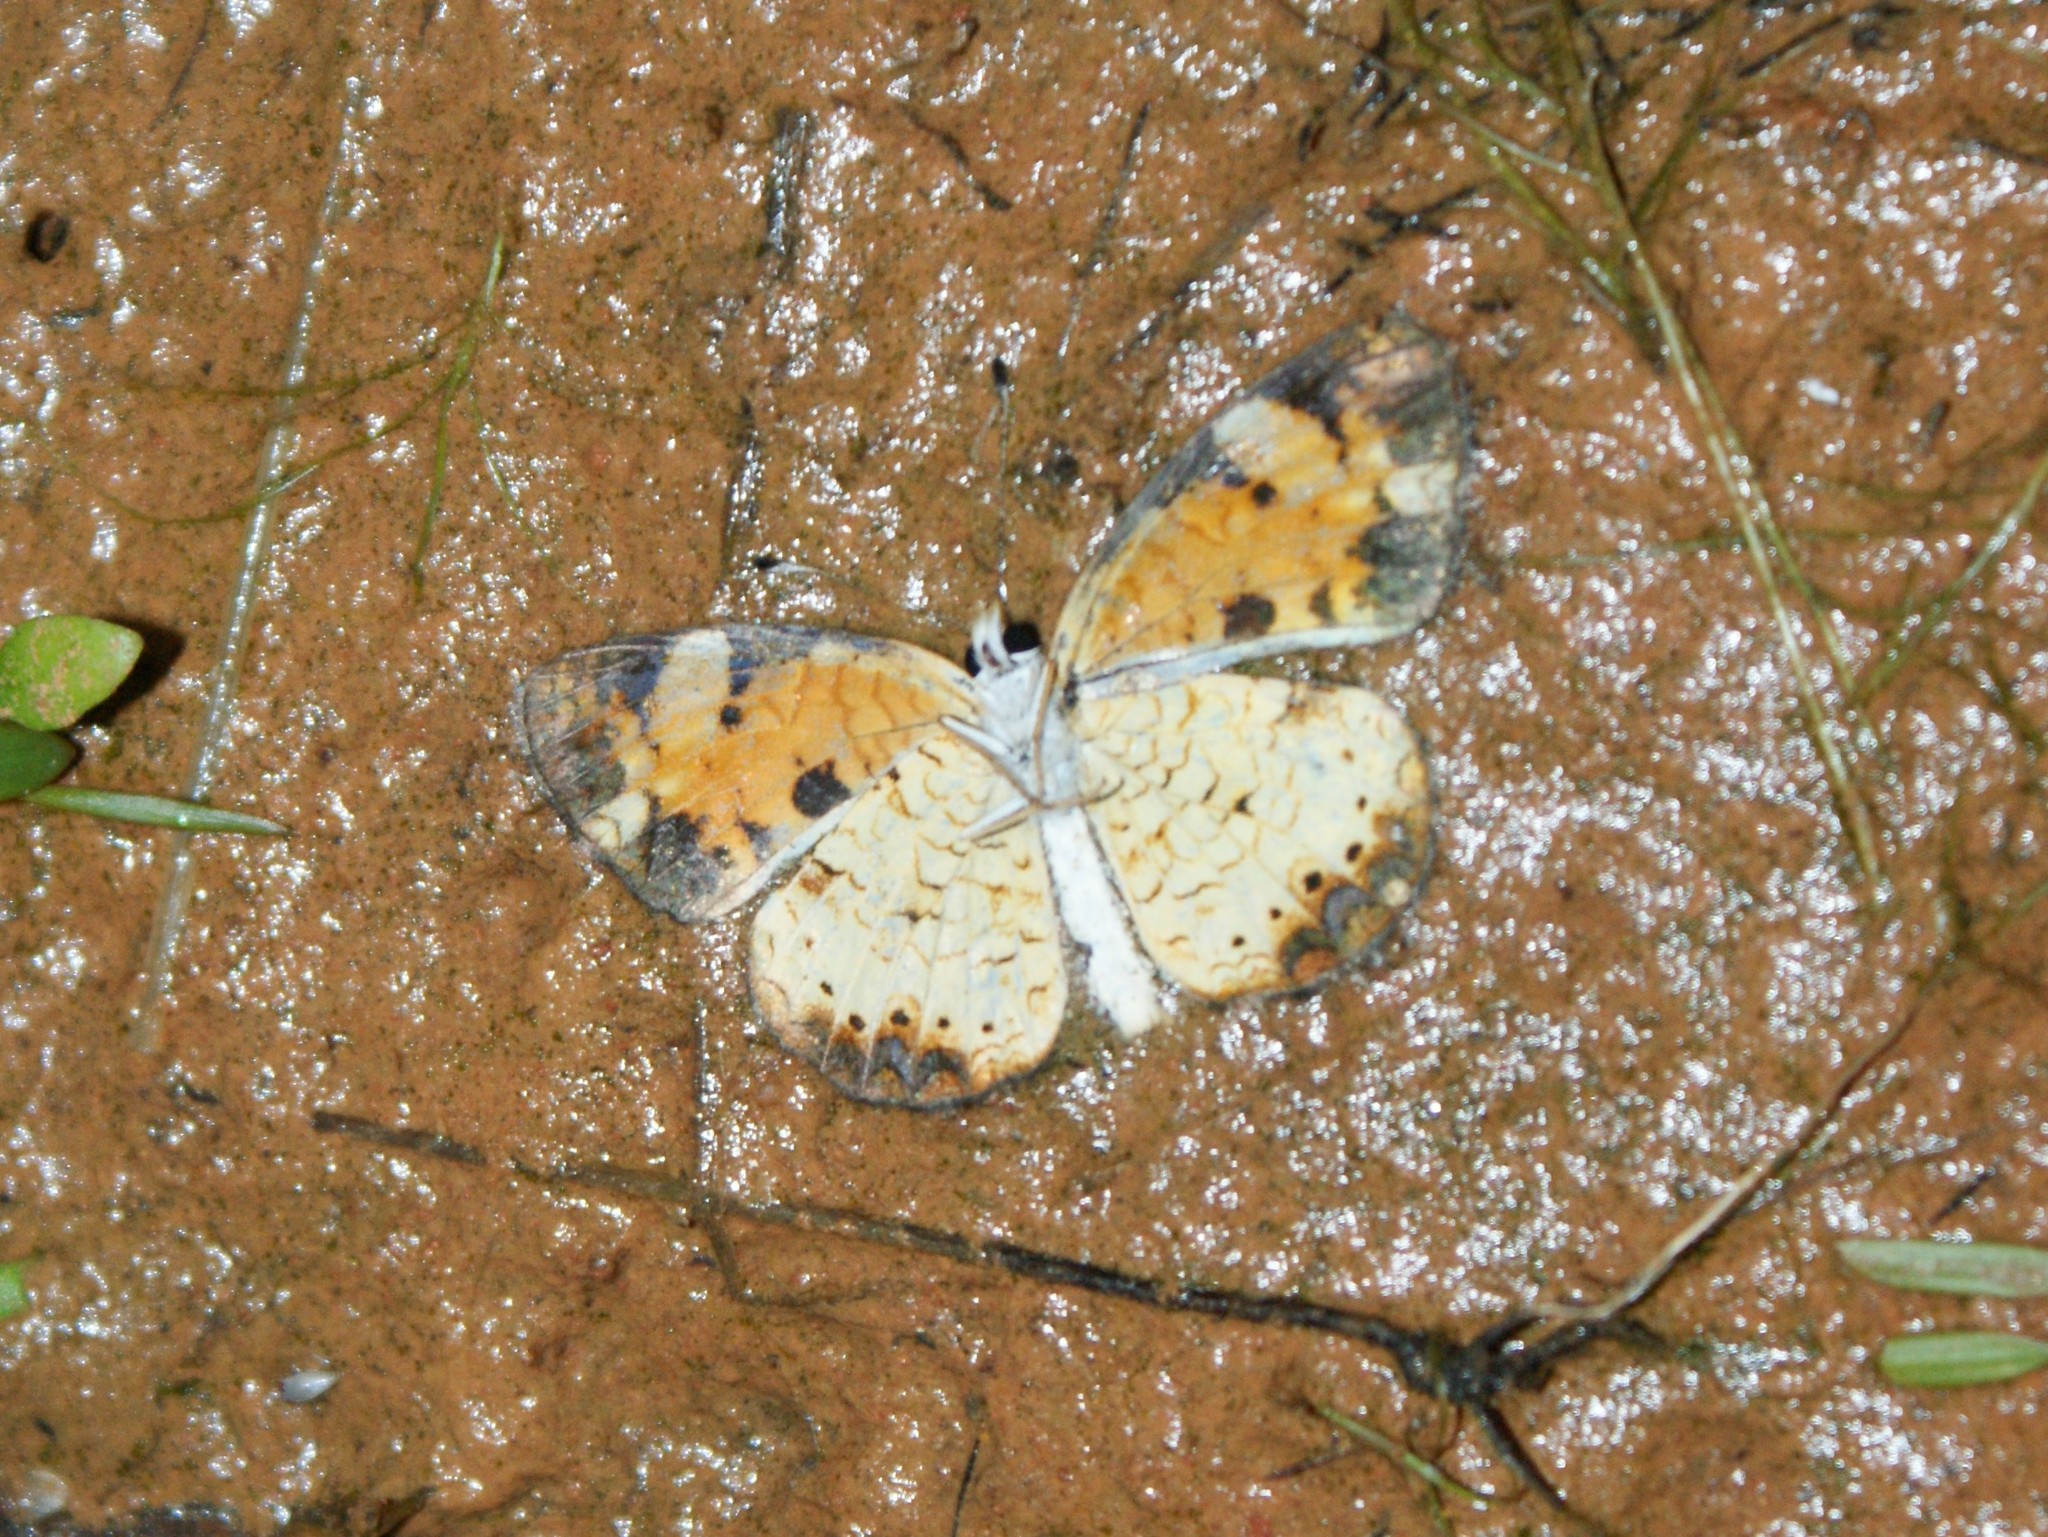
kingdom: Animalia
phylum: Arthropoda
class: Insecta
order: Lepidoptera
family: Nymphalidae
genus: Phyciodes
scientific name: Phyciodes tharos
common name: Pearl crescent
